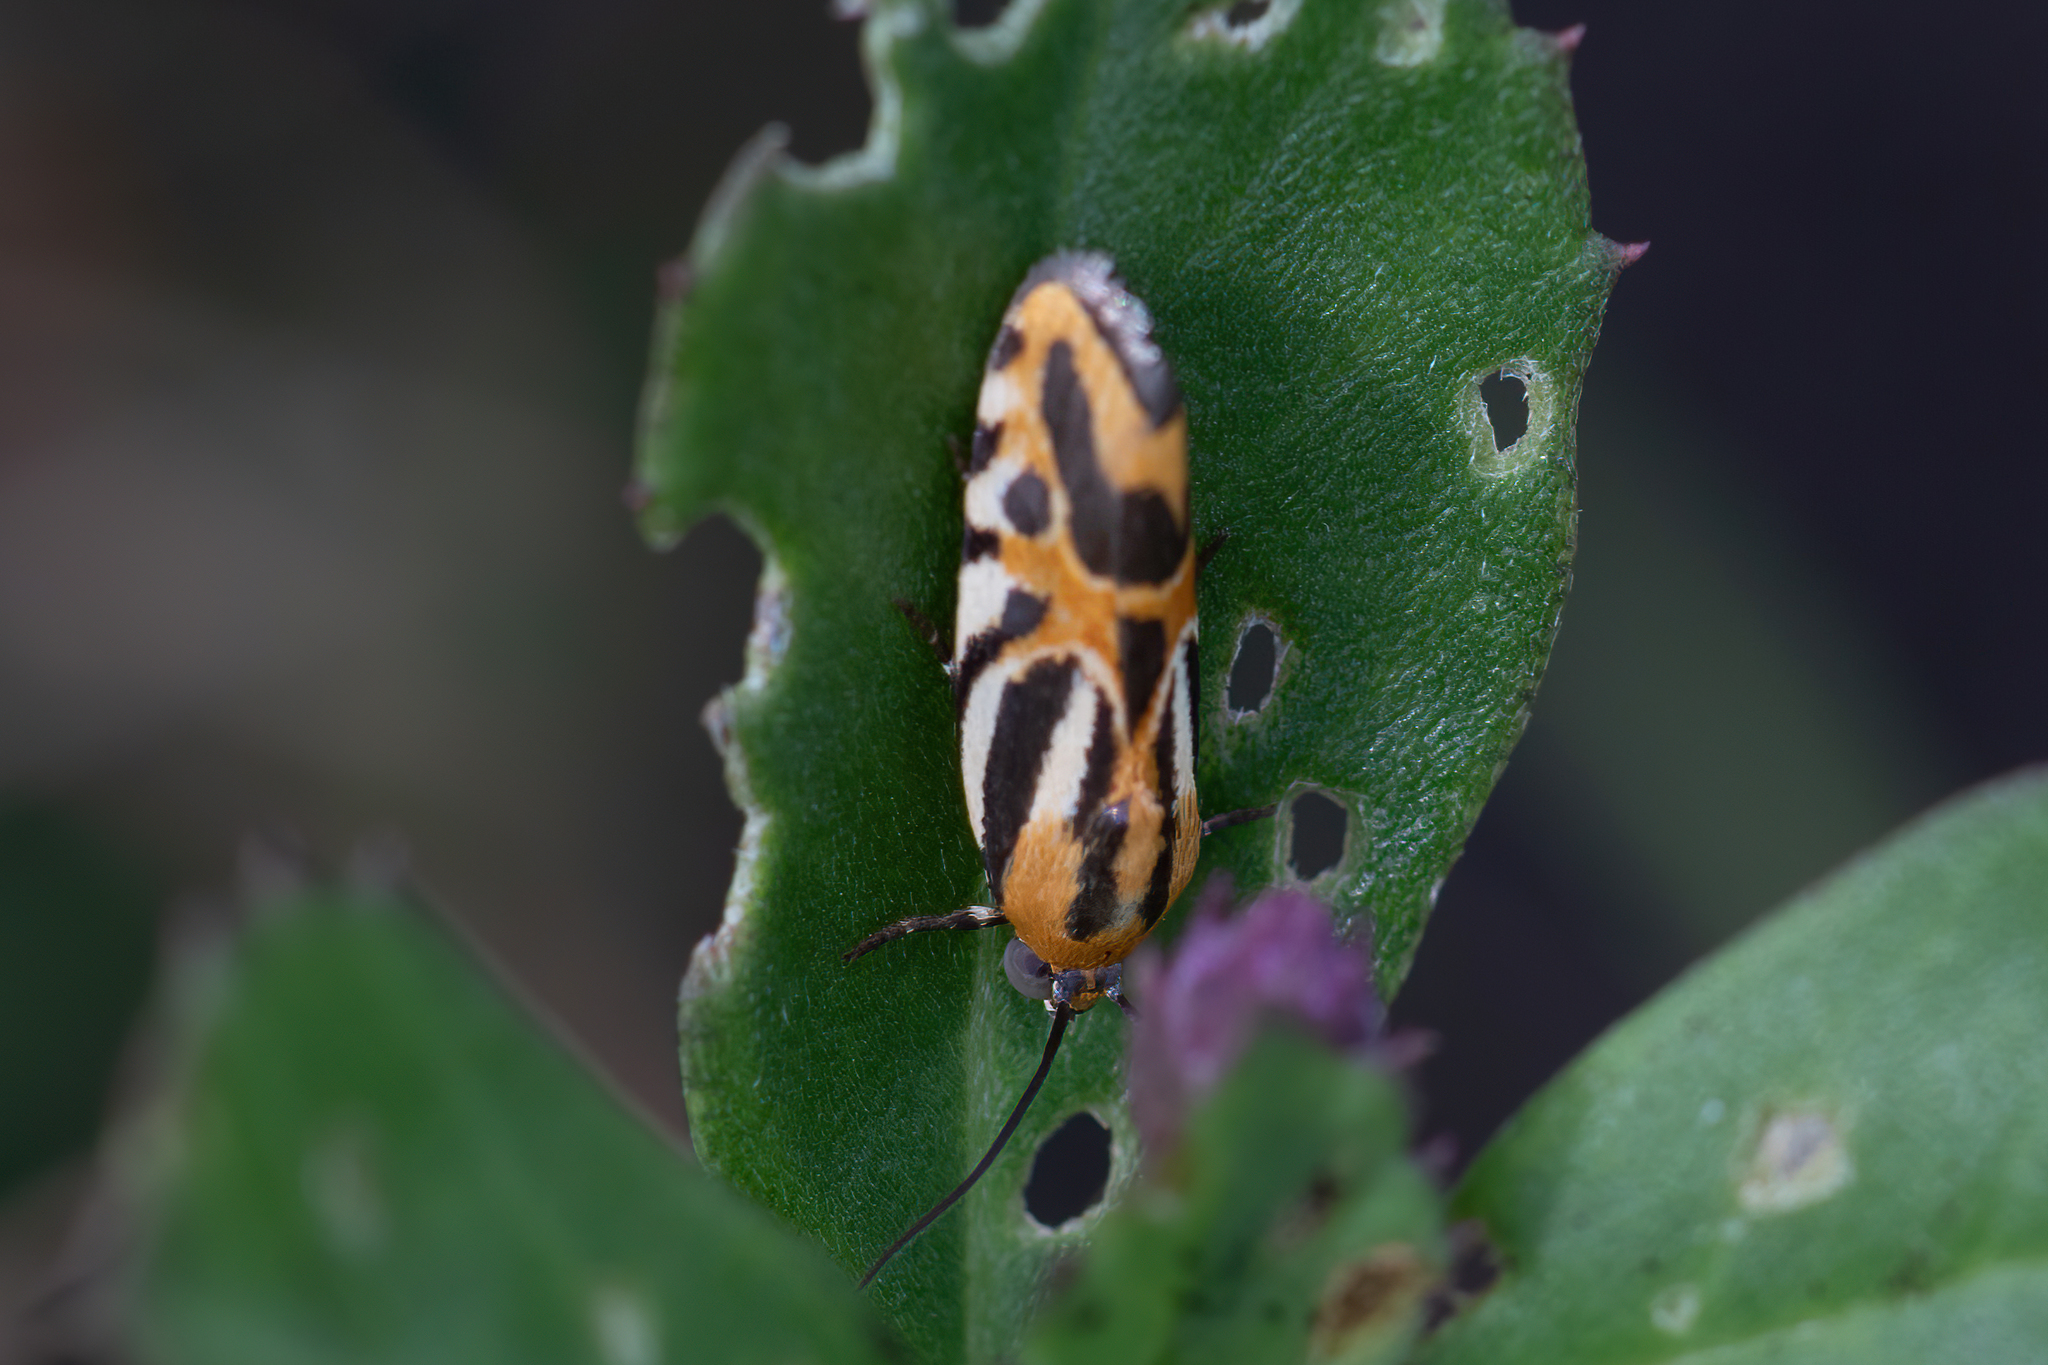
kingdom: Animalia
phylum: Arthropoda
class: Insecta
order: Lepidoptera
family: Noctuidae
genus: Acontia
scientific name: Acontia onagrus
